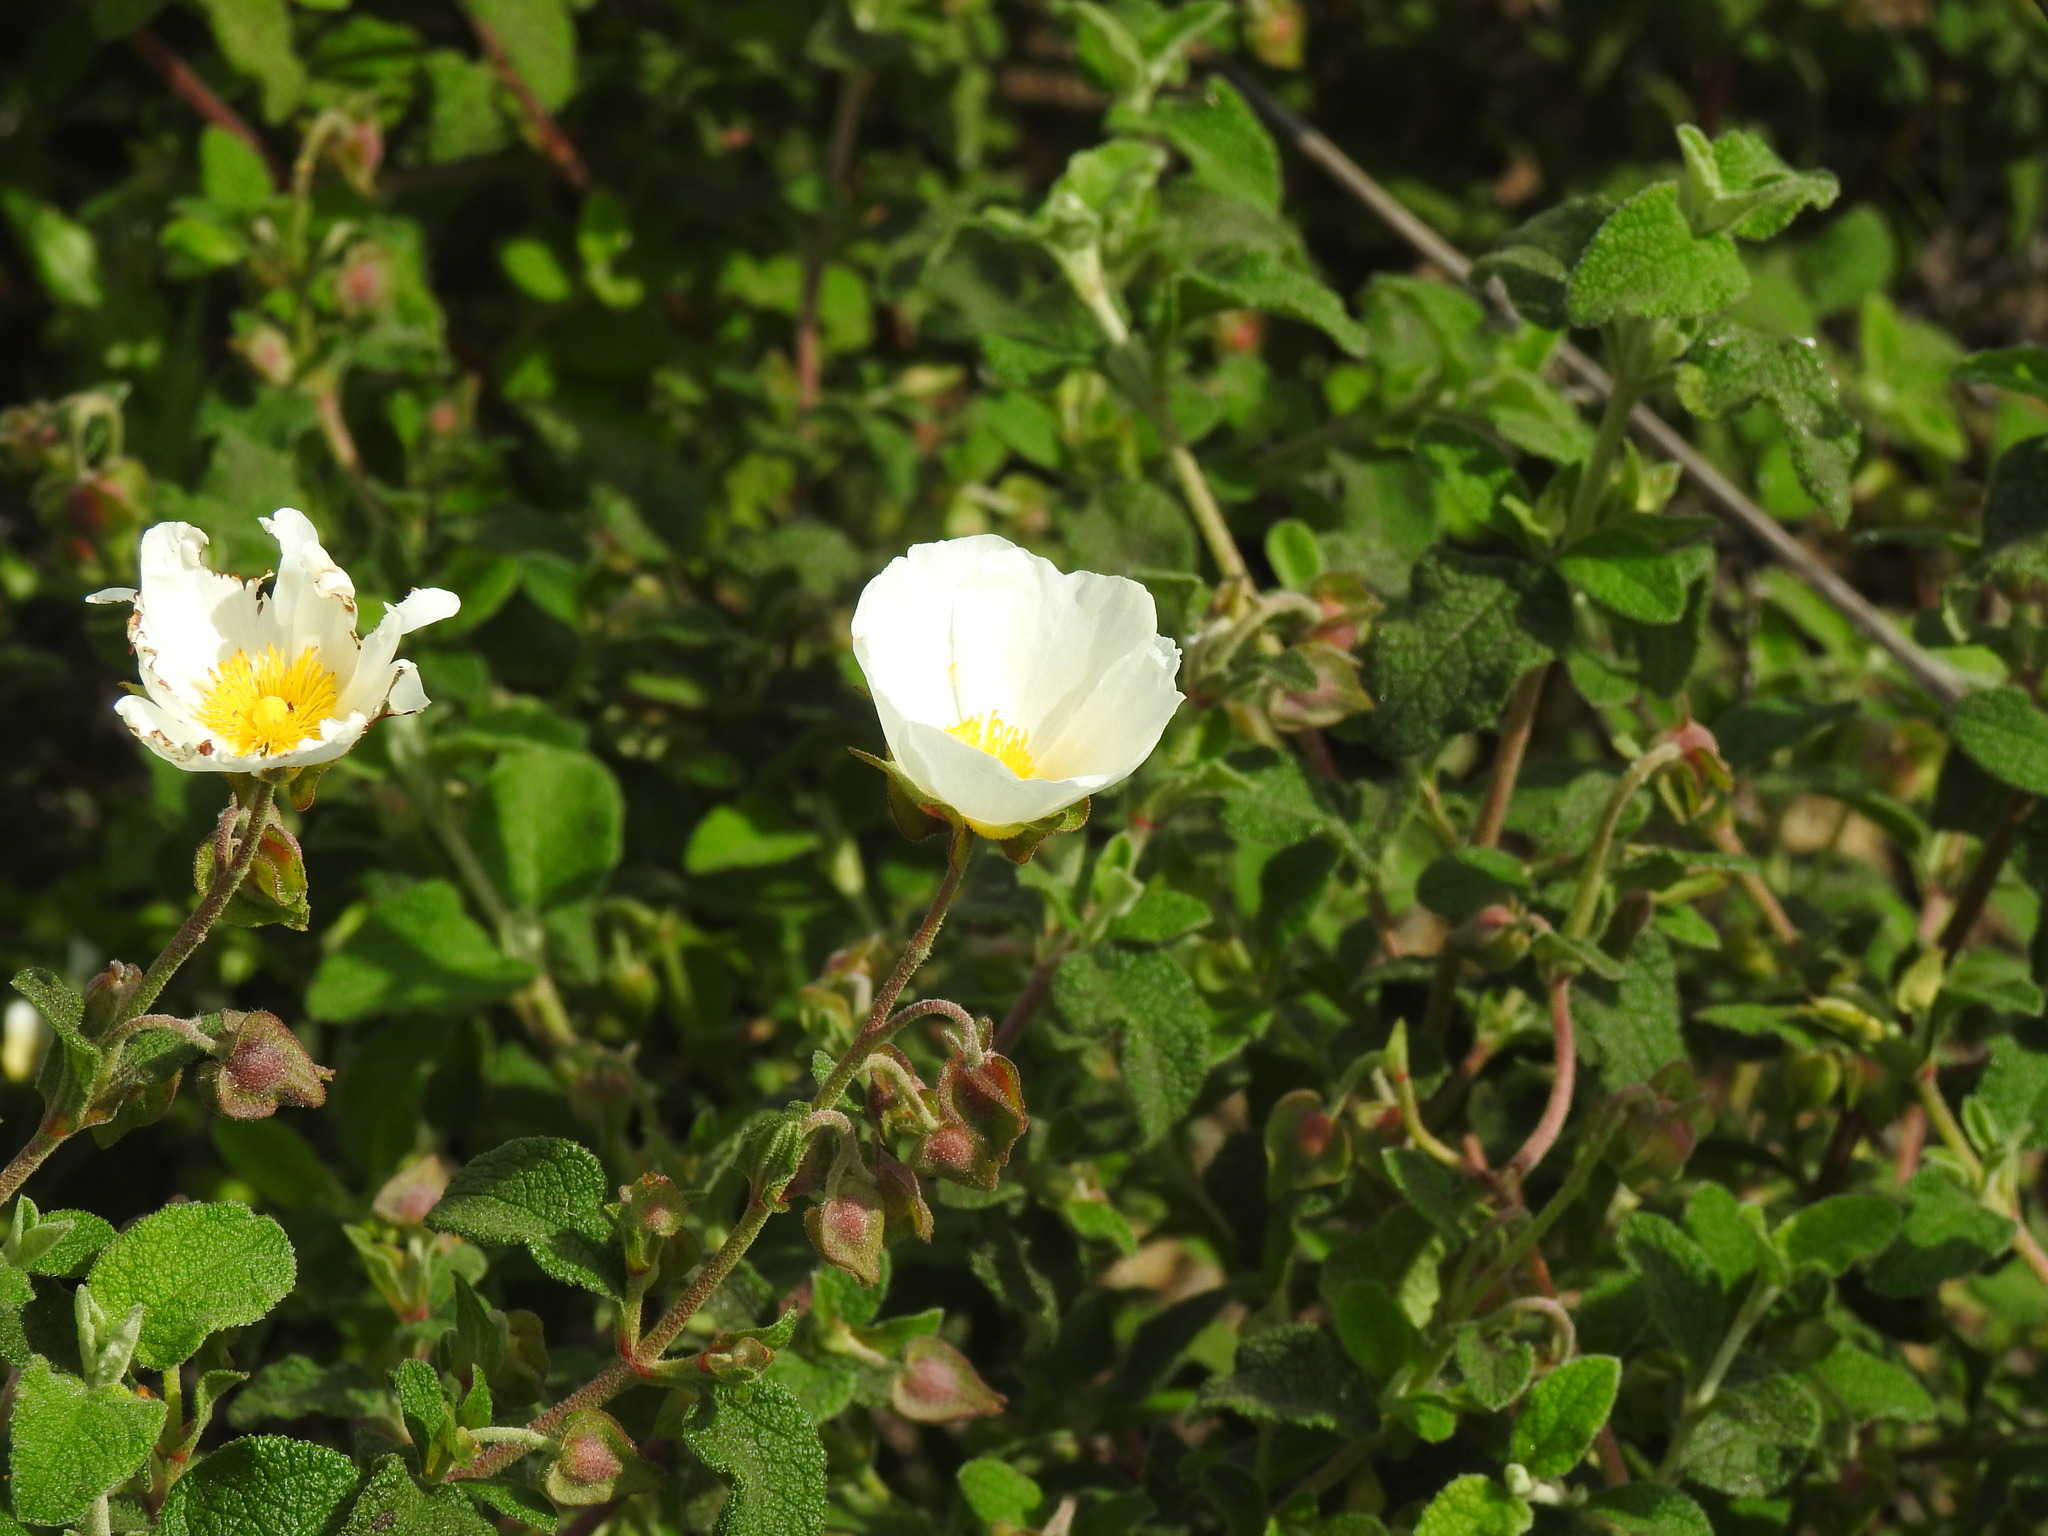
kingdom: Plantae
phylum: Tracheophyta
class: Magnoliopsida
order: Malvales
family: Cistaceae
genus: Cistus
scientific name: Cistus salviifolius
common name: Salvia cistus
